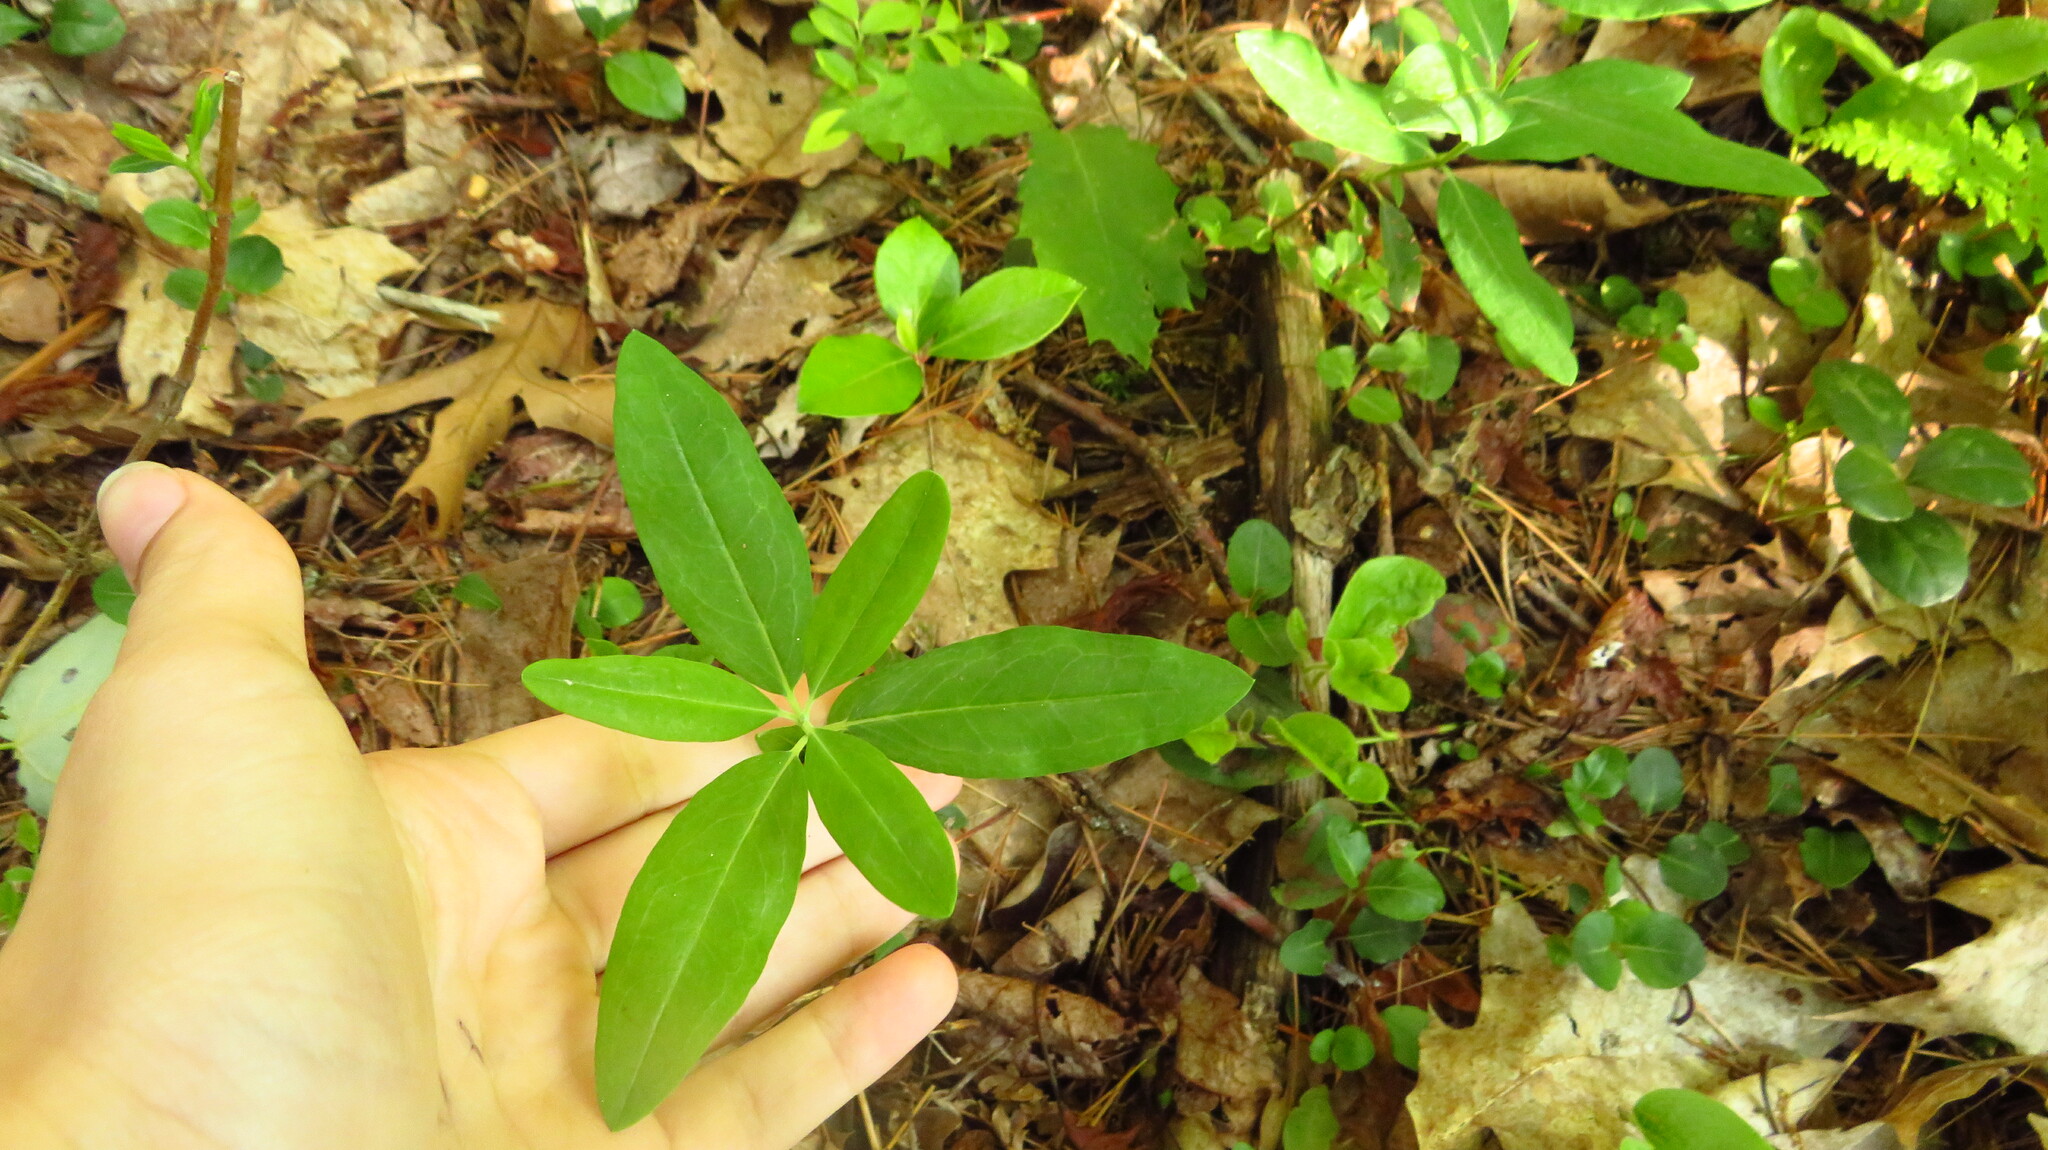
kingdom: Plantae
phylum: Tracheophyta
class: Magnoliopsida
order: Ericales
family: Ericaceae
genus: Kalmia
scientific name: Kalmia angustifolia
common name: Sheep-laurel
